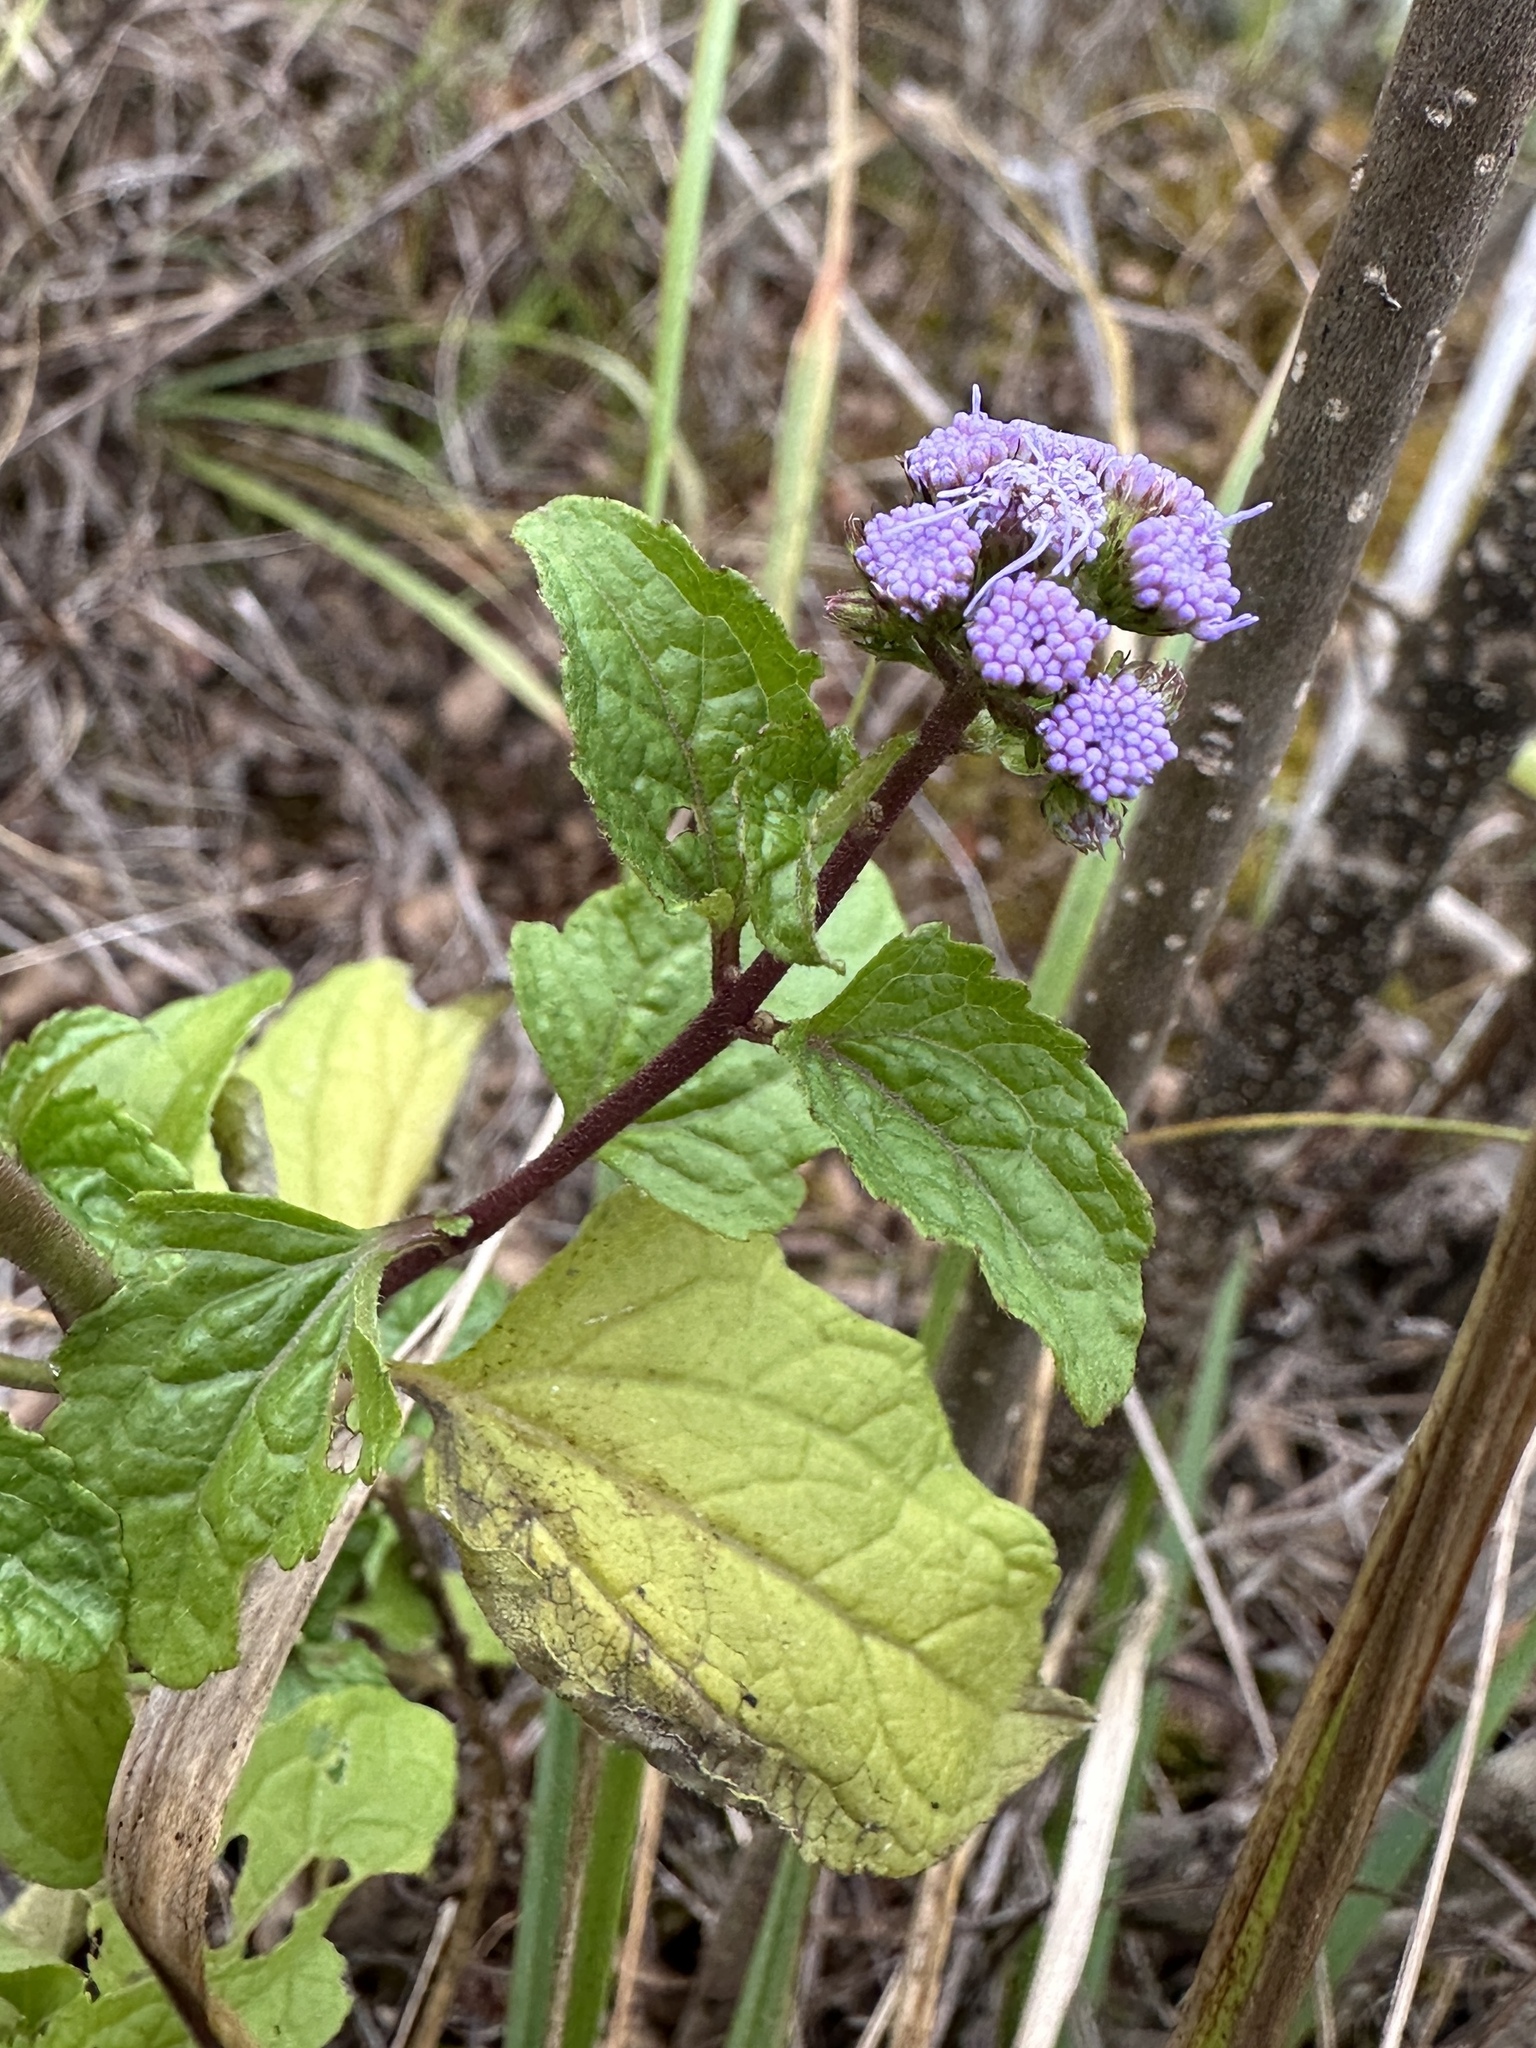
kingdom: Plantae
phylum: Tracheophyta
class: Magnoliopsida
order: Asterales
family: Asteraceae
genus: Conoclinium
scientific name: Conoclinium coelestinum
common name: Blue mistflower
